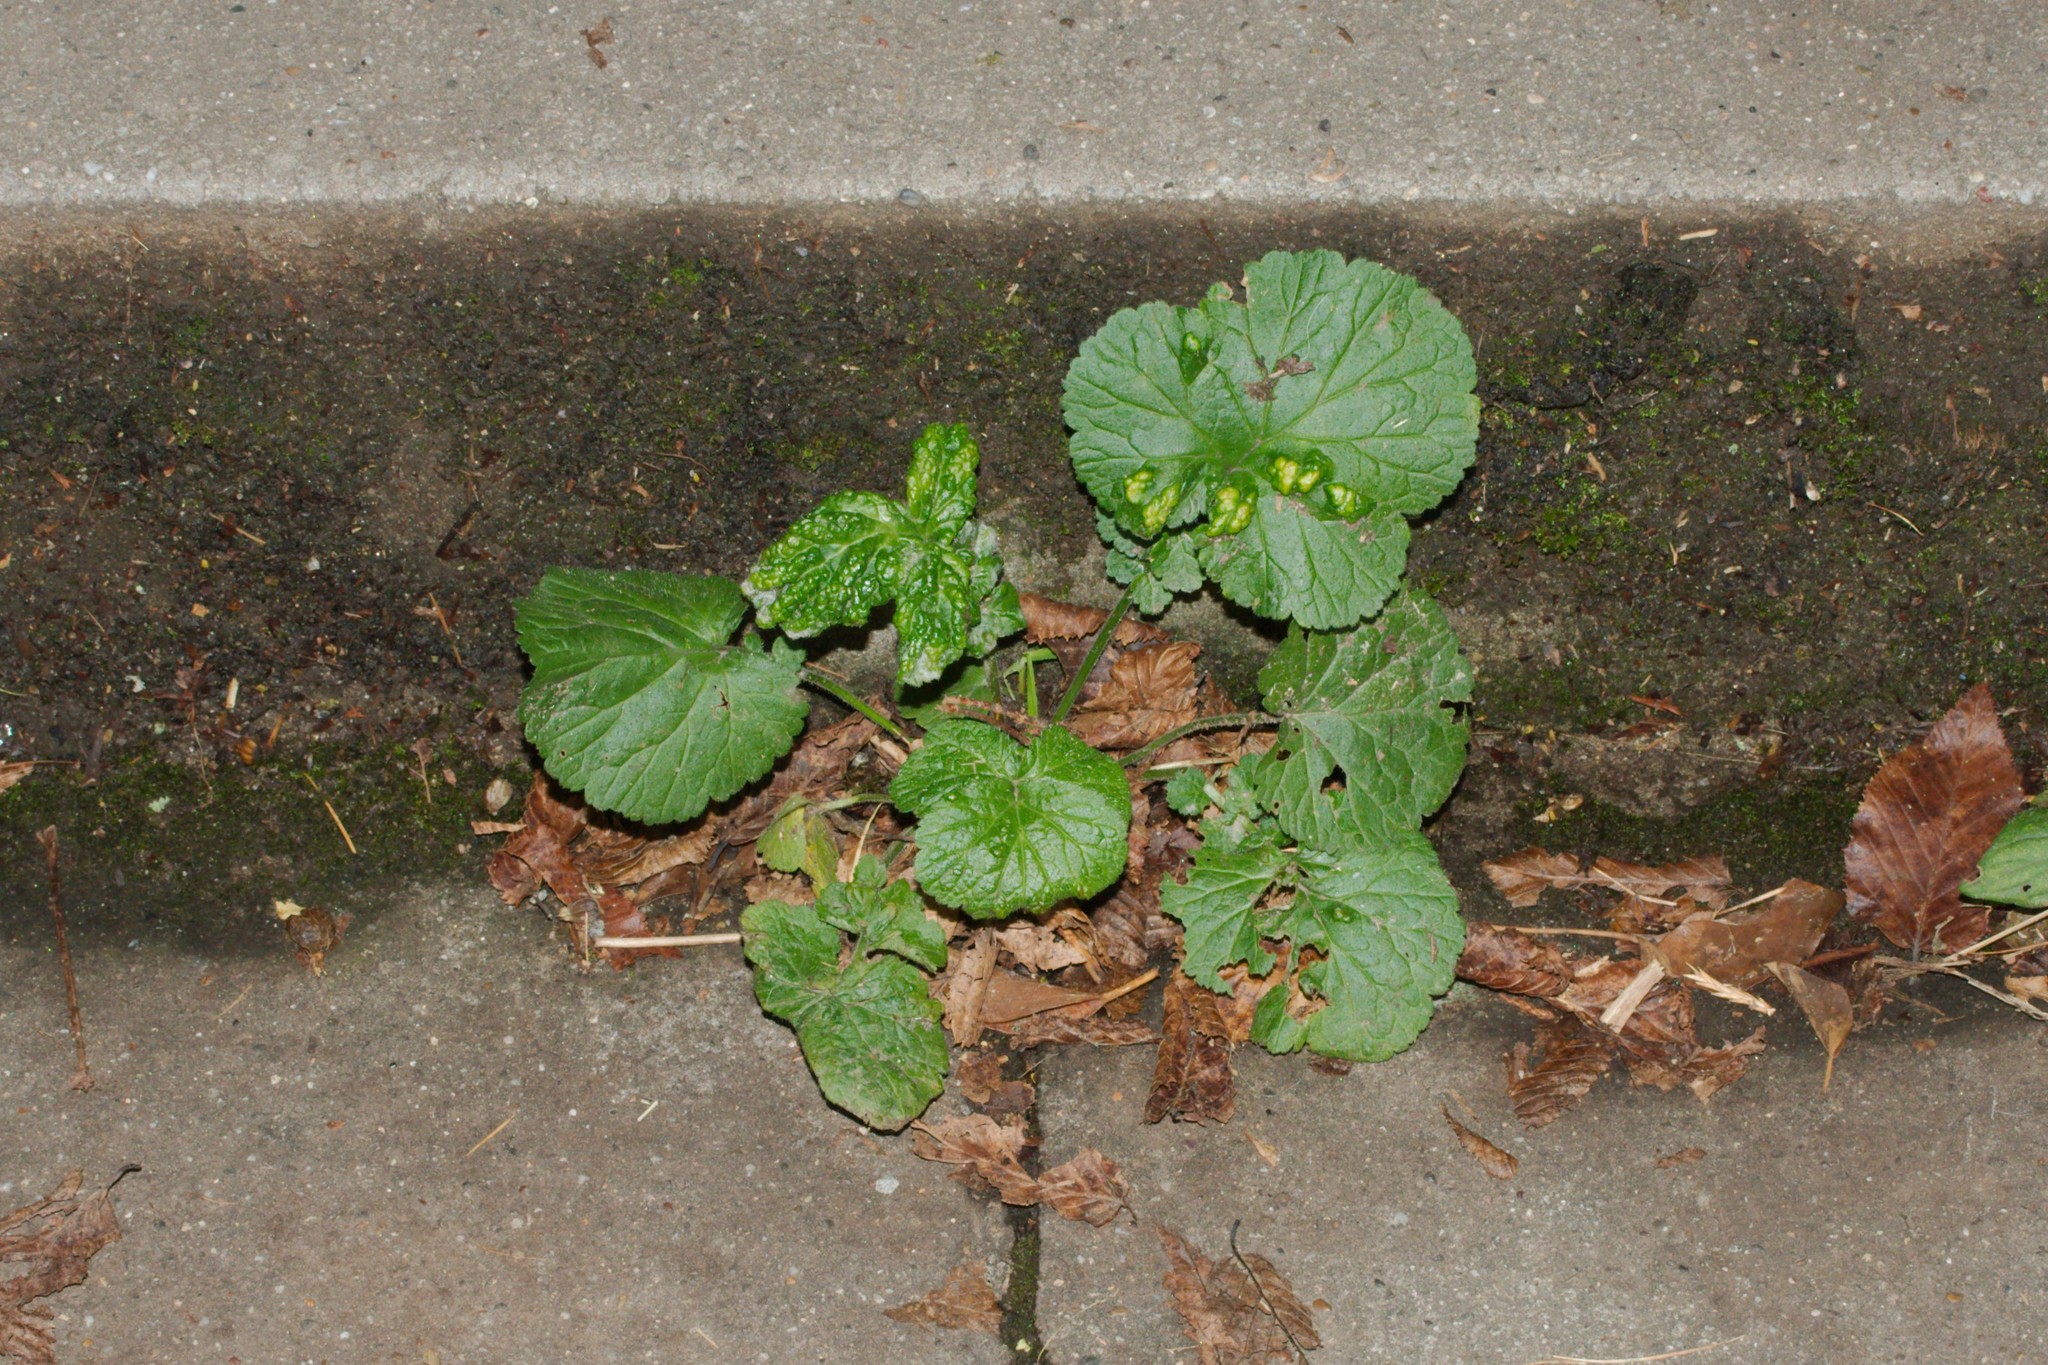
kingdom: Animalia
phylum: Arthropoda
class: Arachnida
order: Trombidiformes
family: Eriophyidae
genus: Cecidophyes
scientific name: Cecidophyes nudus
